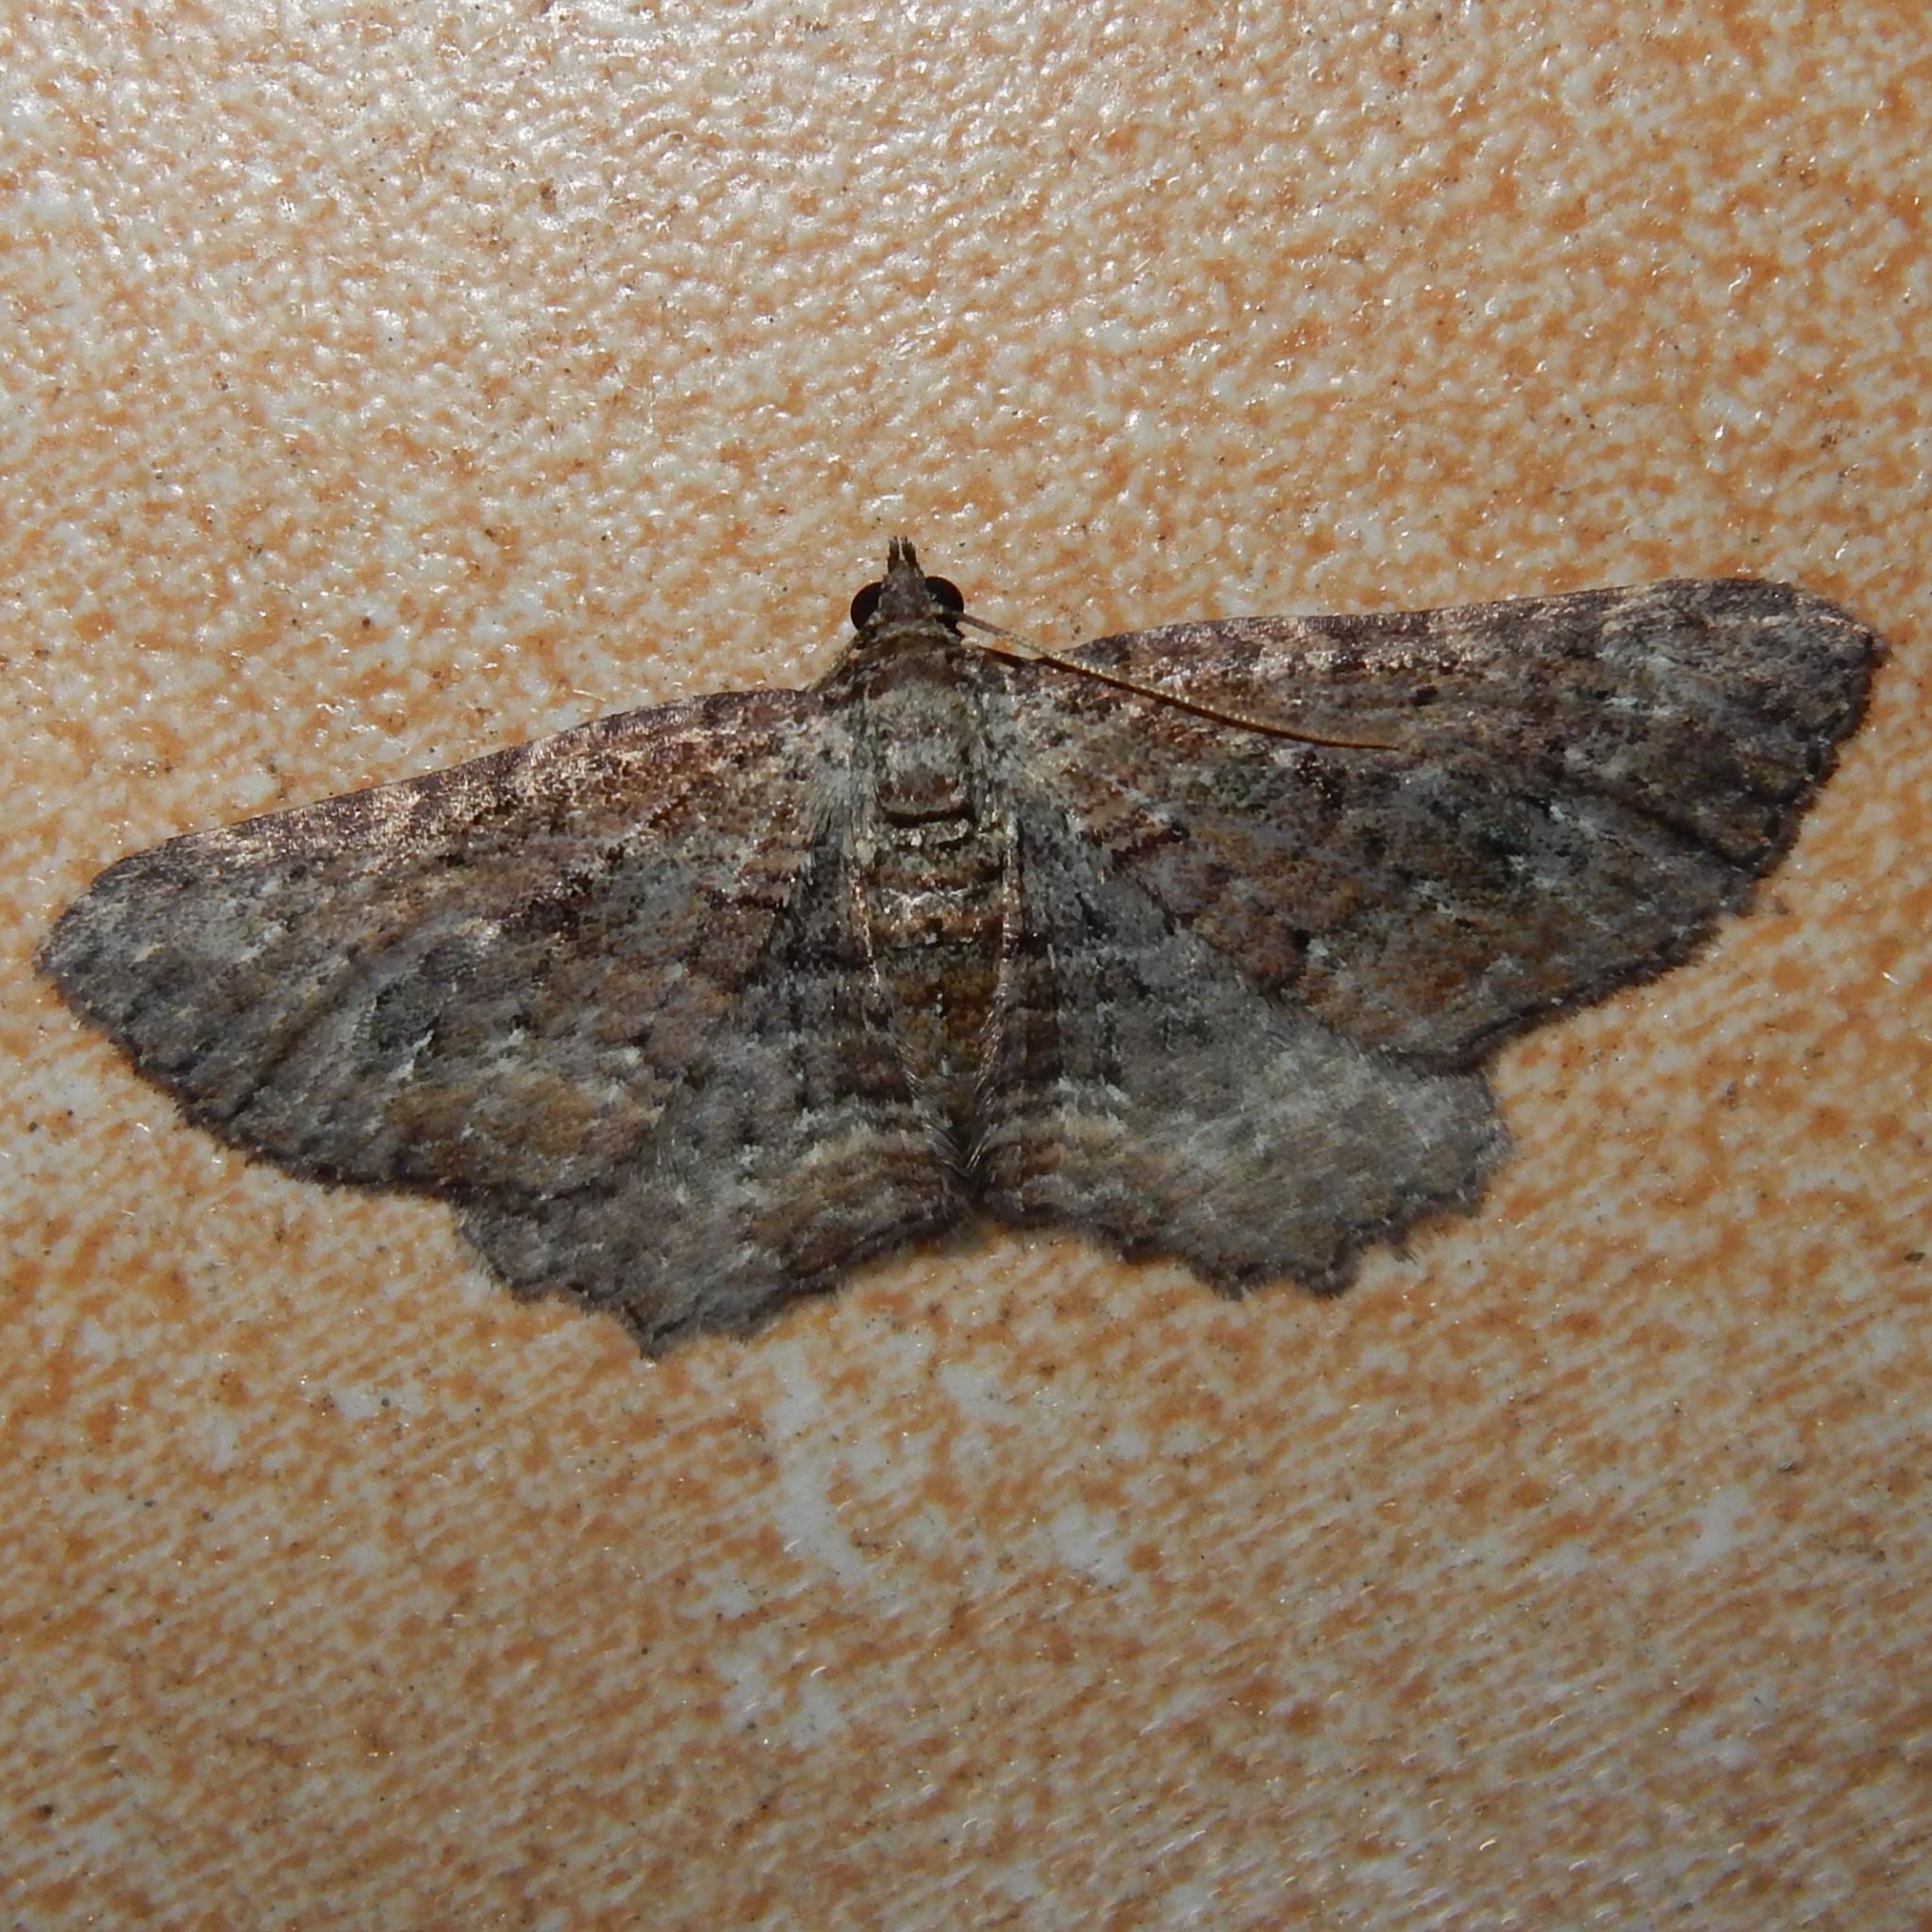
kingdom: Animalia
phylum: Arthropoda
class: Insecta
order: Lepidoptera
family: Geometridae
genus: Horisme
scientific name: Horisme obscurata
